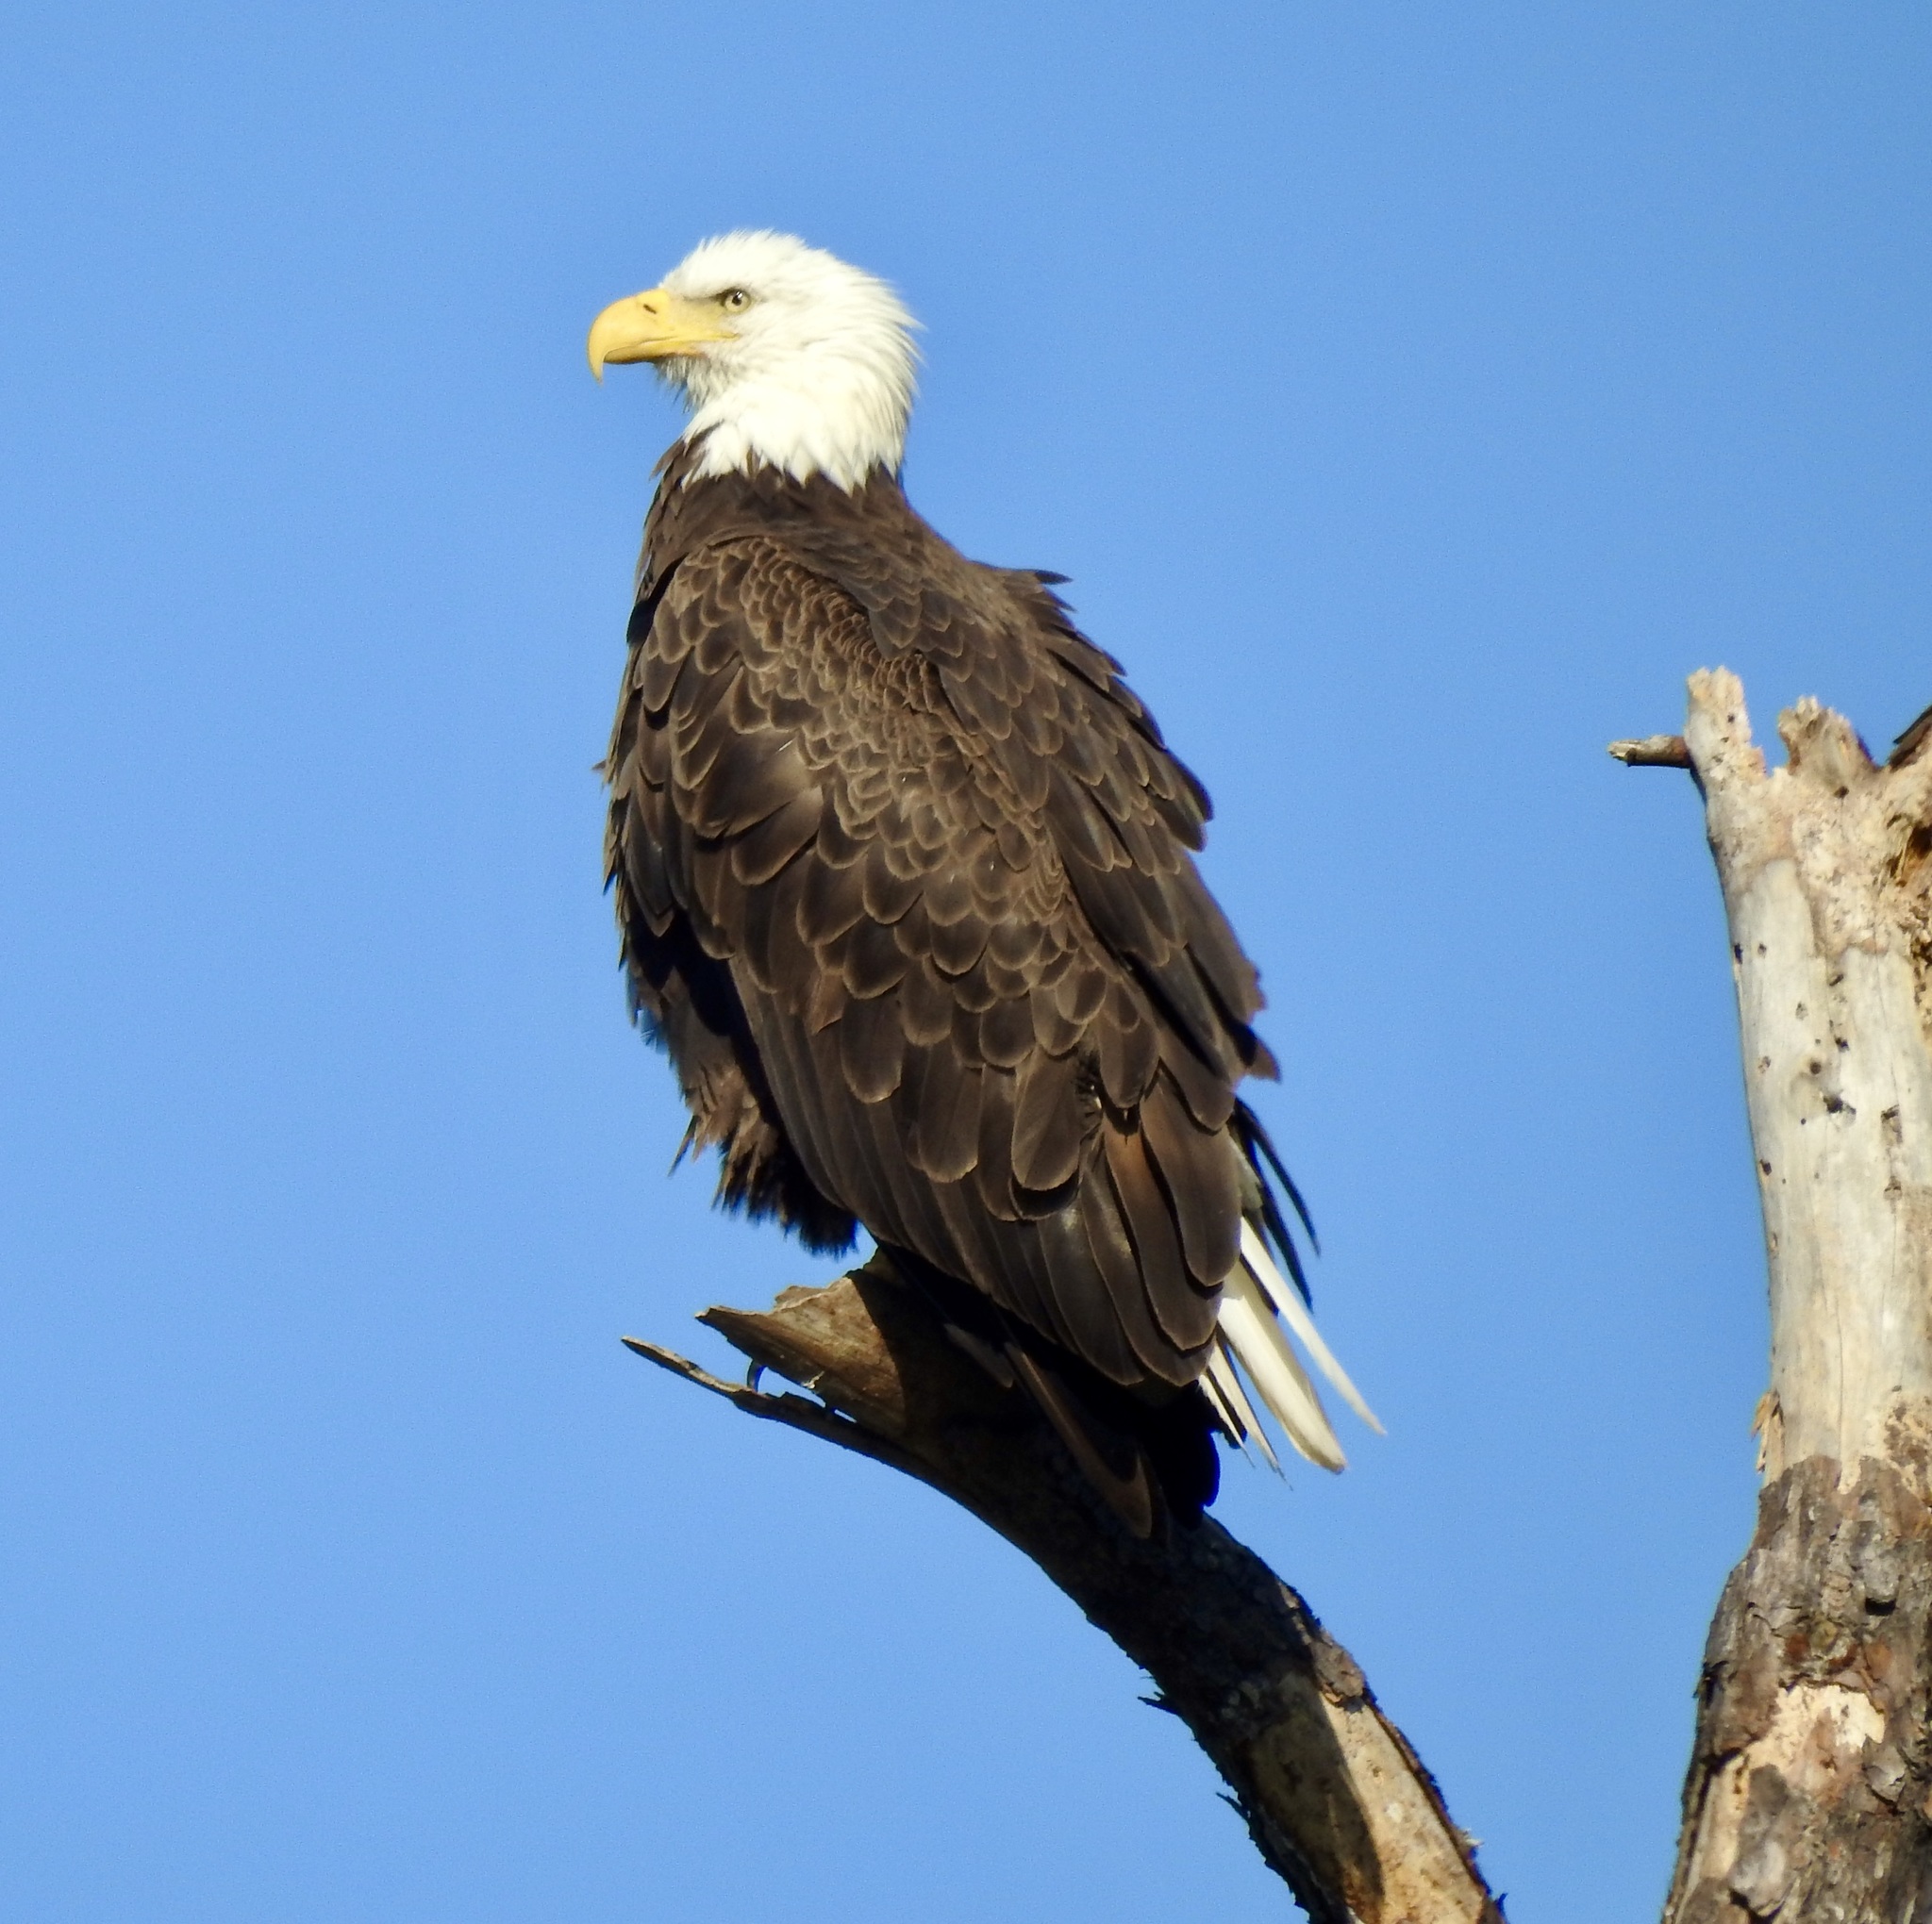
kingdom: Animalia
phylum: Chordata
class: Aves
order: Accipitriformes
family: Accipitridae
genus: Haliaeetus
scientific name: Haliaeetus leucocephalus
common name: Bald eagle
